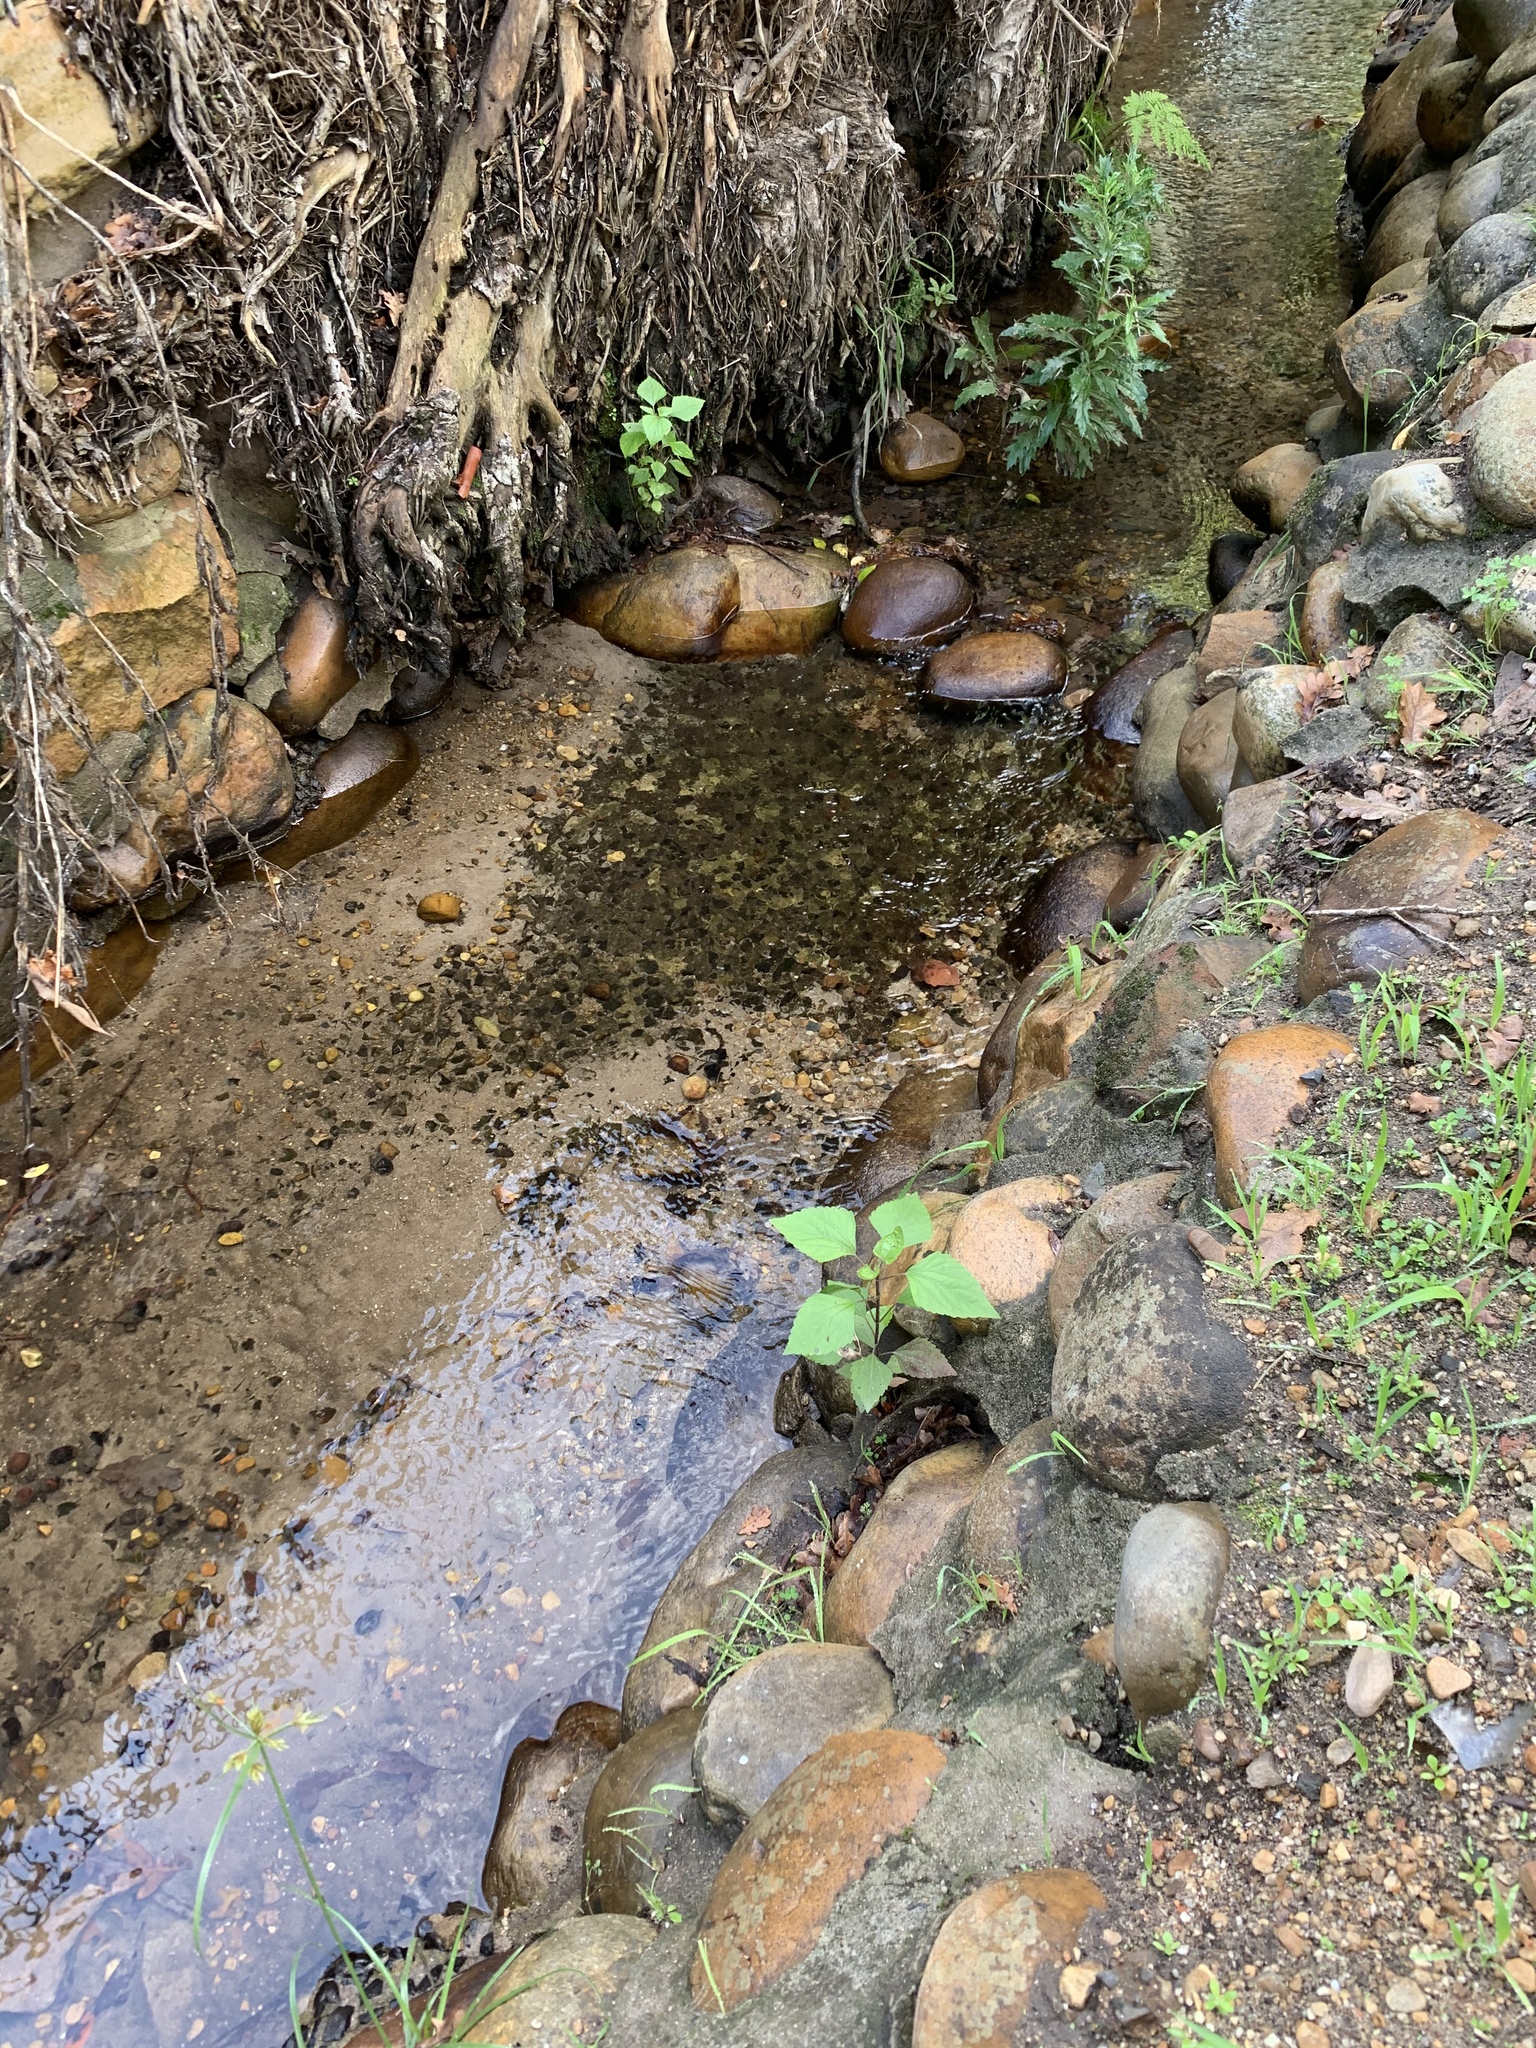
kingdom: Plantae
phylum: Tracheophyta
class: Magnoliopsida
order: Asterales
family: Asteraceae
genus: Ageratina
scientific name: Ageratina adenophora
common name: Sticky snakeroot
